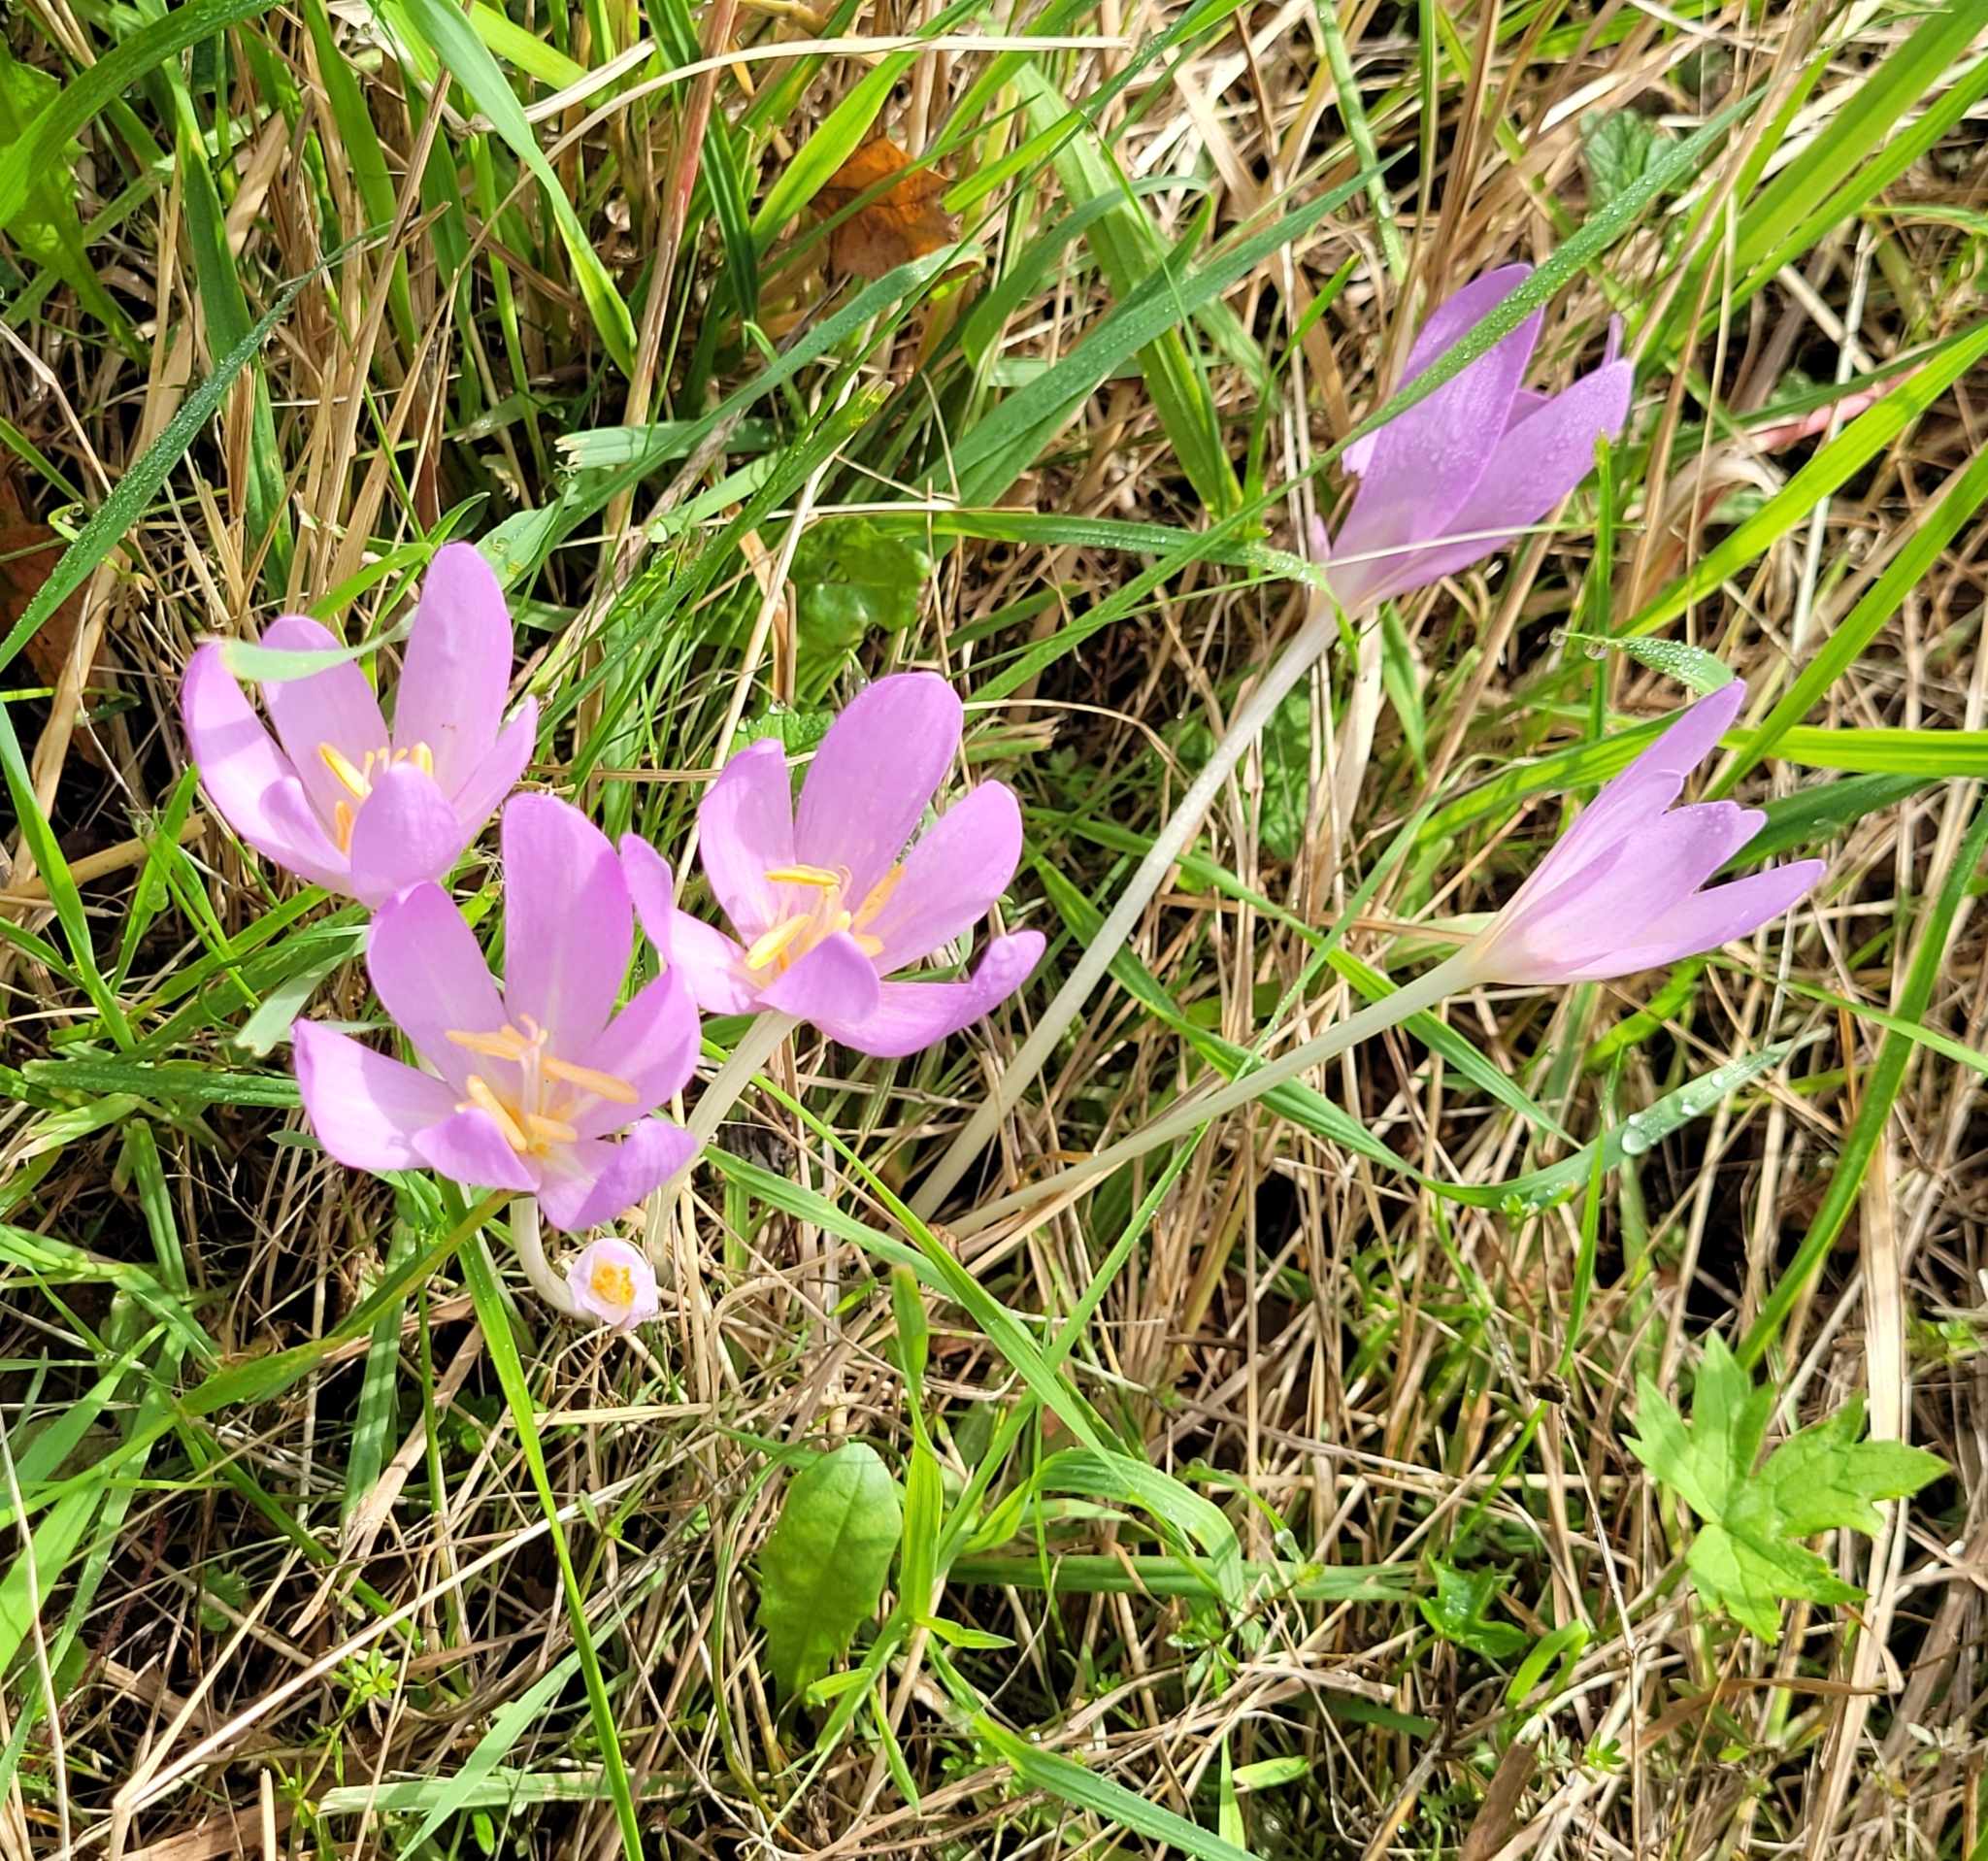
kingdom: Plantae
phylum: Tracheophyta
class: Liliopsida
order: Liliales
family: Colchicaceae
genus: Colchicum
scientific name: Colchicum autumnale
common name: Autumn crocus
